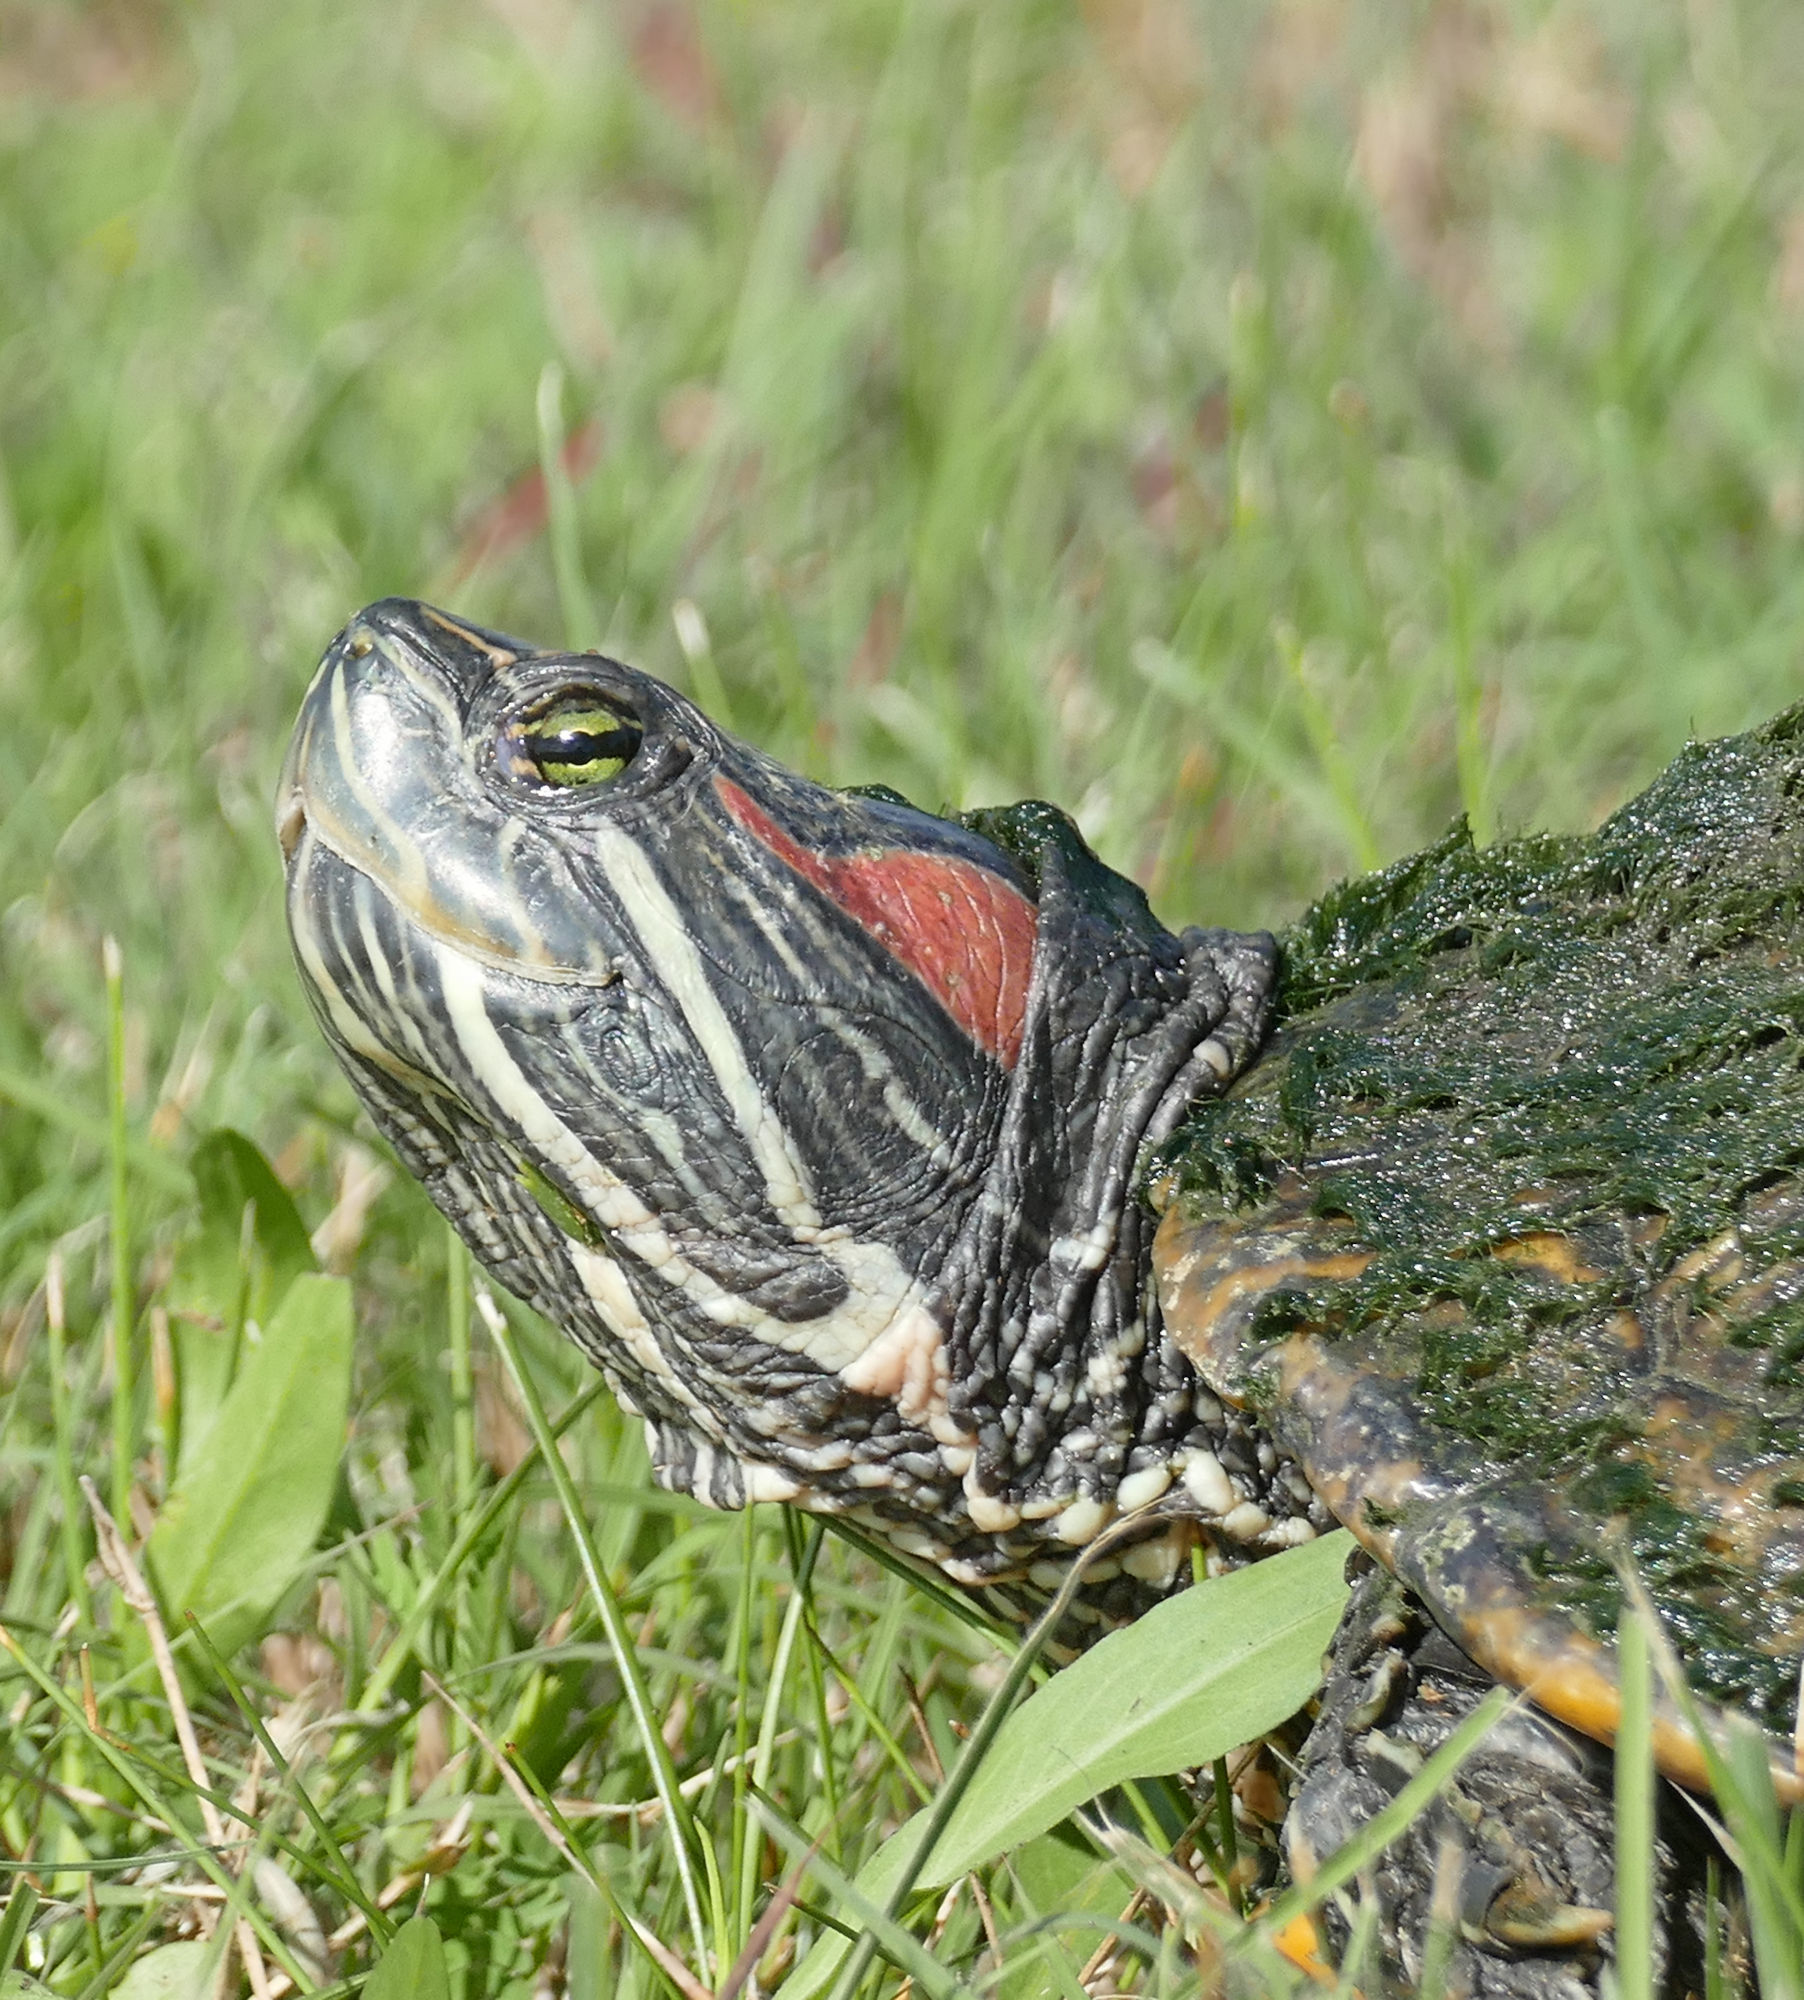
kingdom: Animalia
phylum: Chordata
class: Testudines
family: Emydidae
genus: Trachemys
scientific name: Trachemys scripta
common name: Slider
